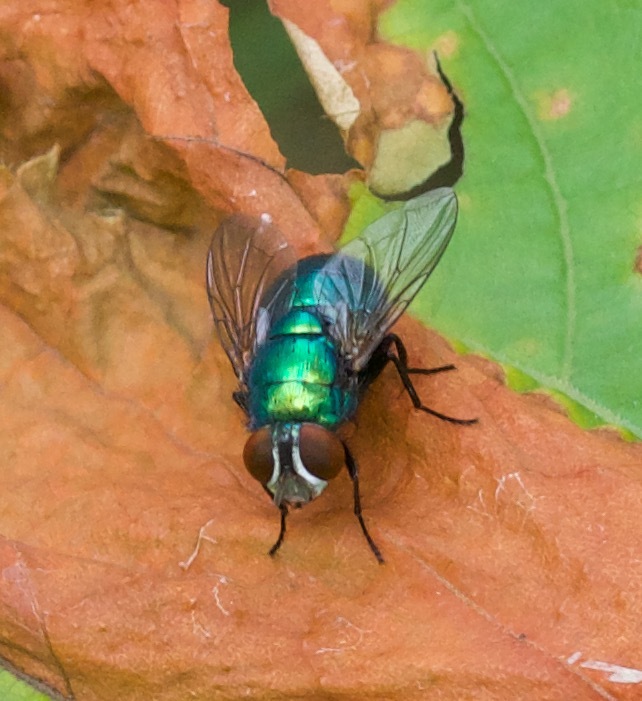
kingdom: Animalia
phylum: Arthropoda
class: Insecta
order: Diptera
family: Calliphoridae
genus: Lucilia
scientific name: Lucilia caeruleiviridis
